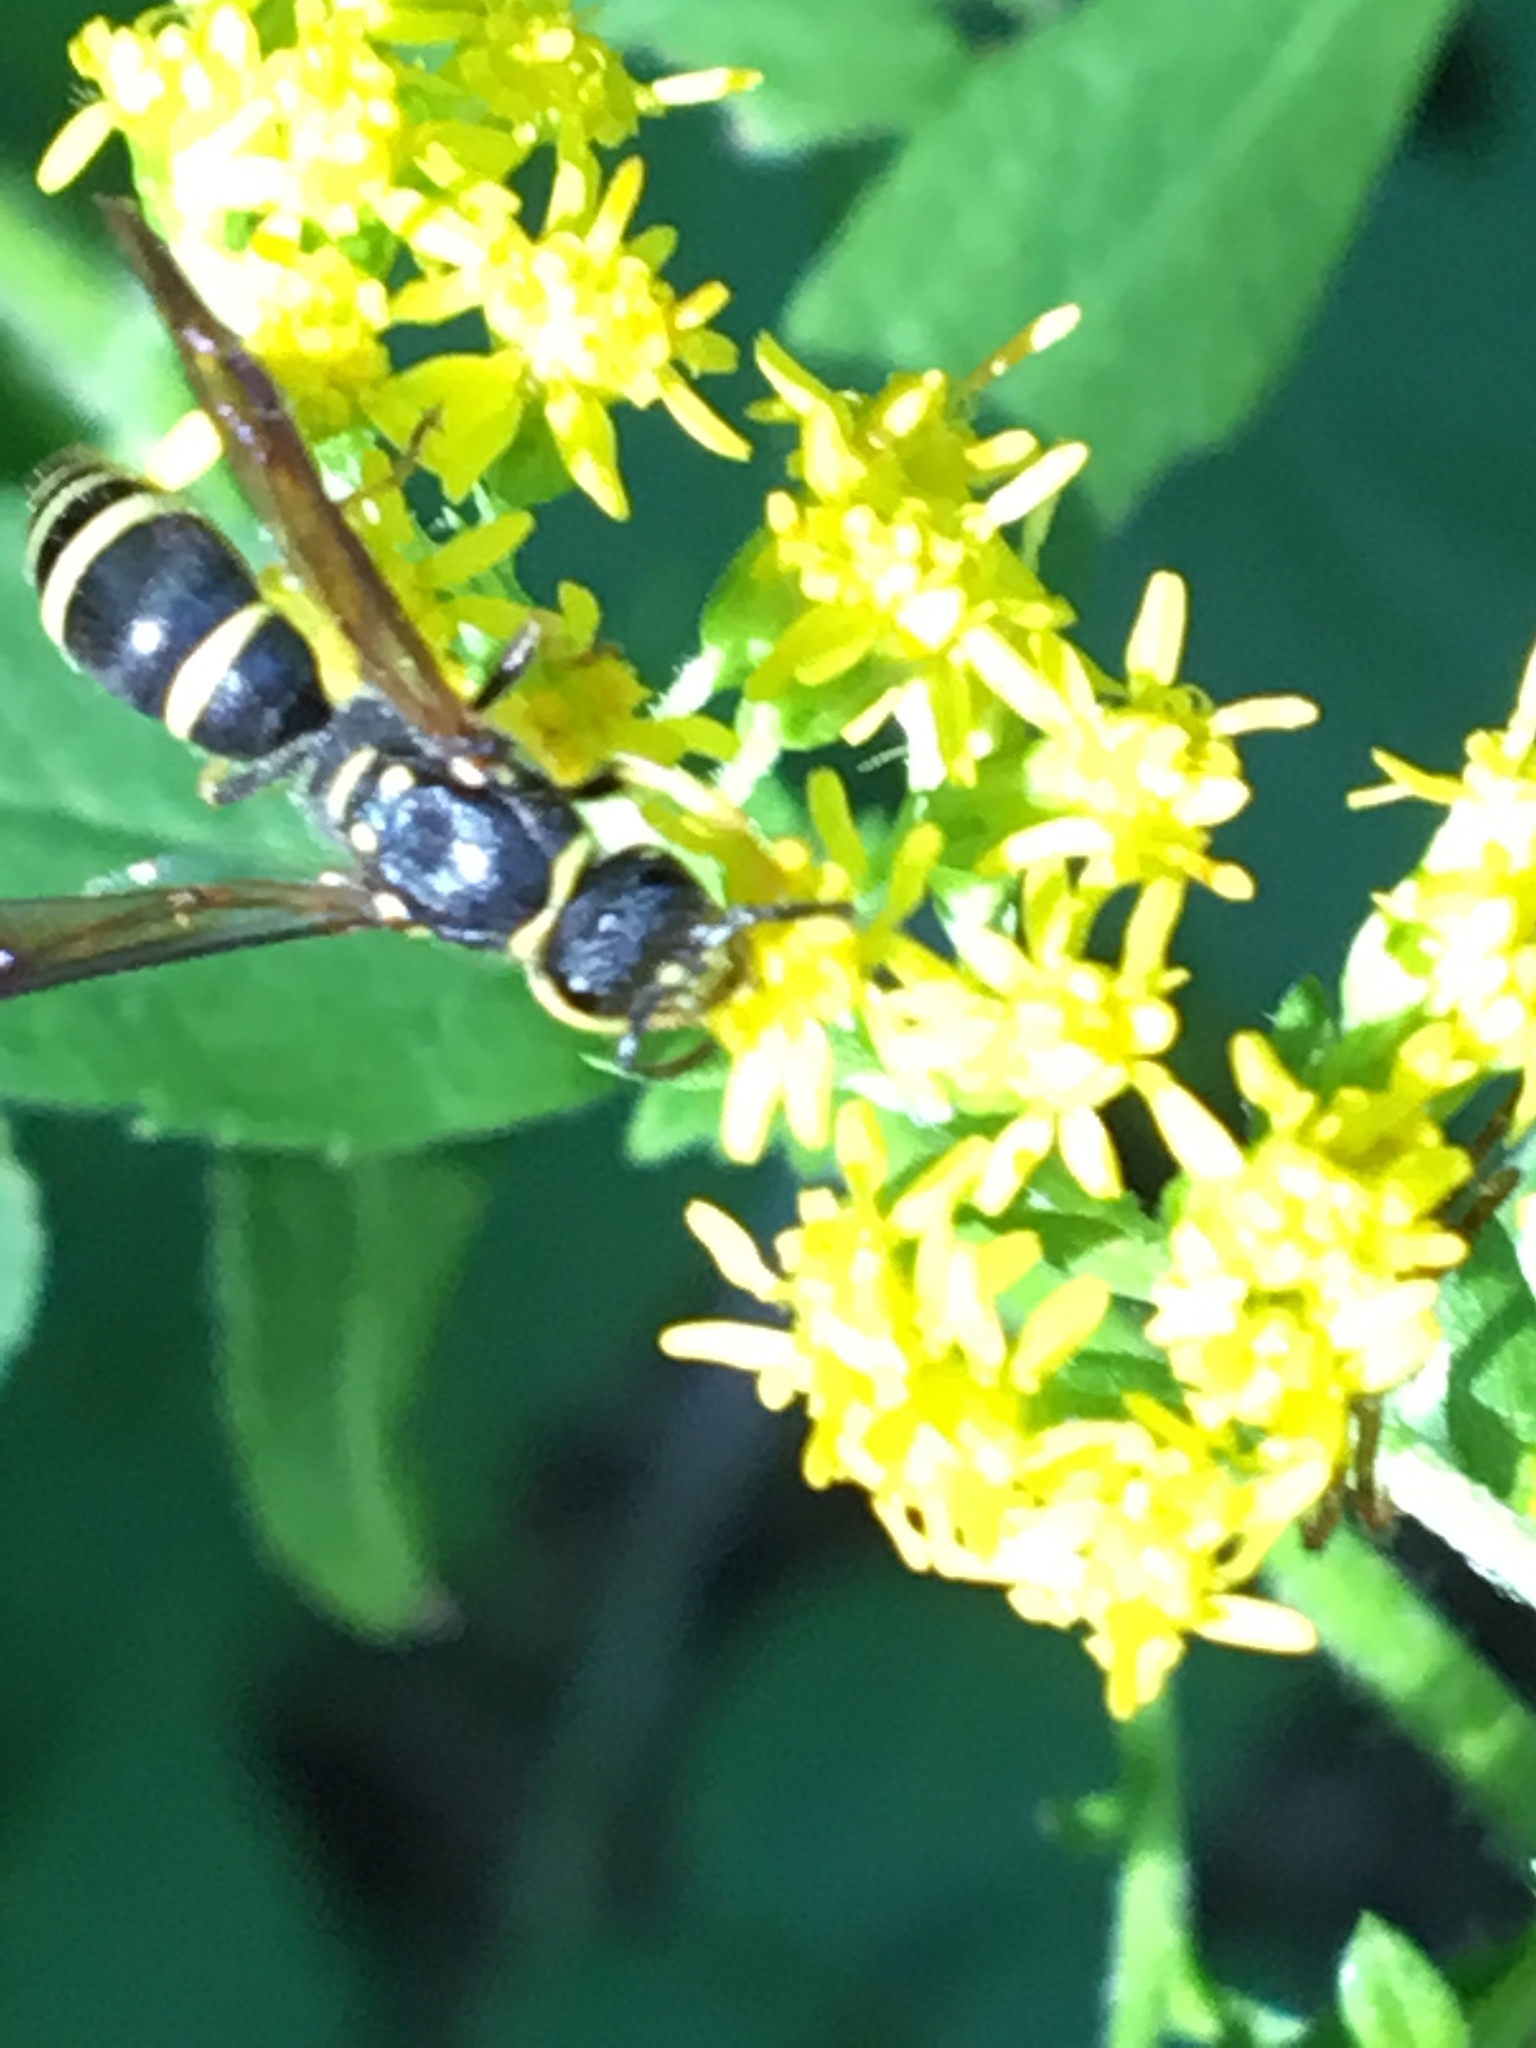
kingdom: Animalia
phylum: Arthropoda
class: Insecta
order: Hymenoptera
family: Vespidae
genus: Ancistrocerus
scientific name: Ancistrocerus adiabatus
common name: Bramble mason wasp
